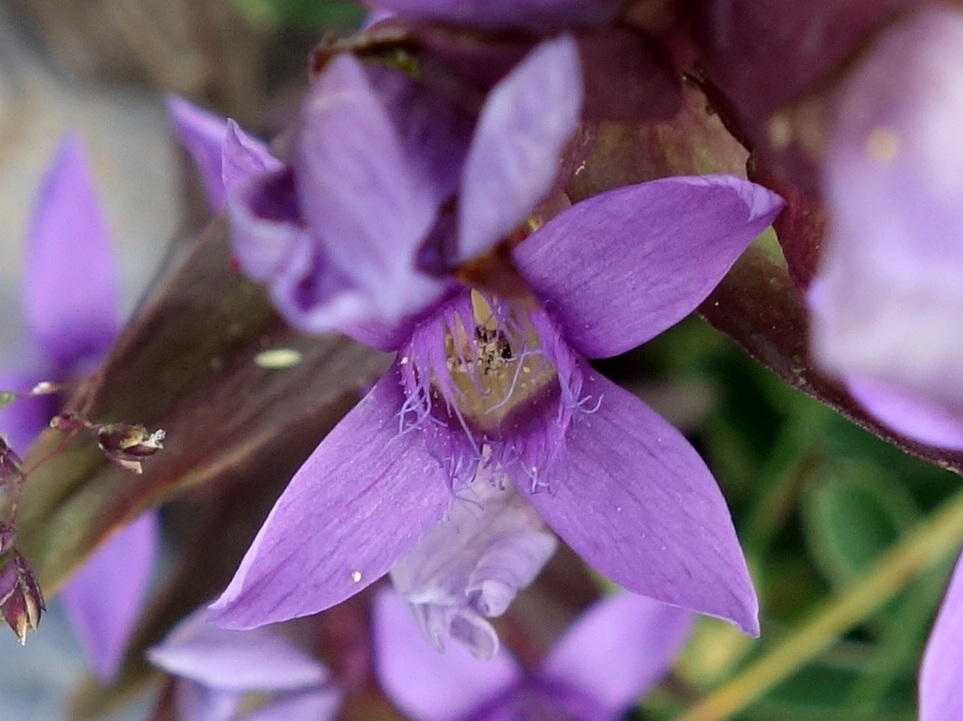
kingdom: Plantae
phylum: Tracheophyta
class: Magnoliopsida
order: Gentianales
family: Gentianaceae
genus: Gentianella
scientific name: Gentianella campestris
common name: Field gentian
